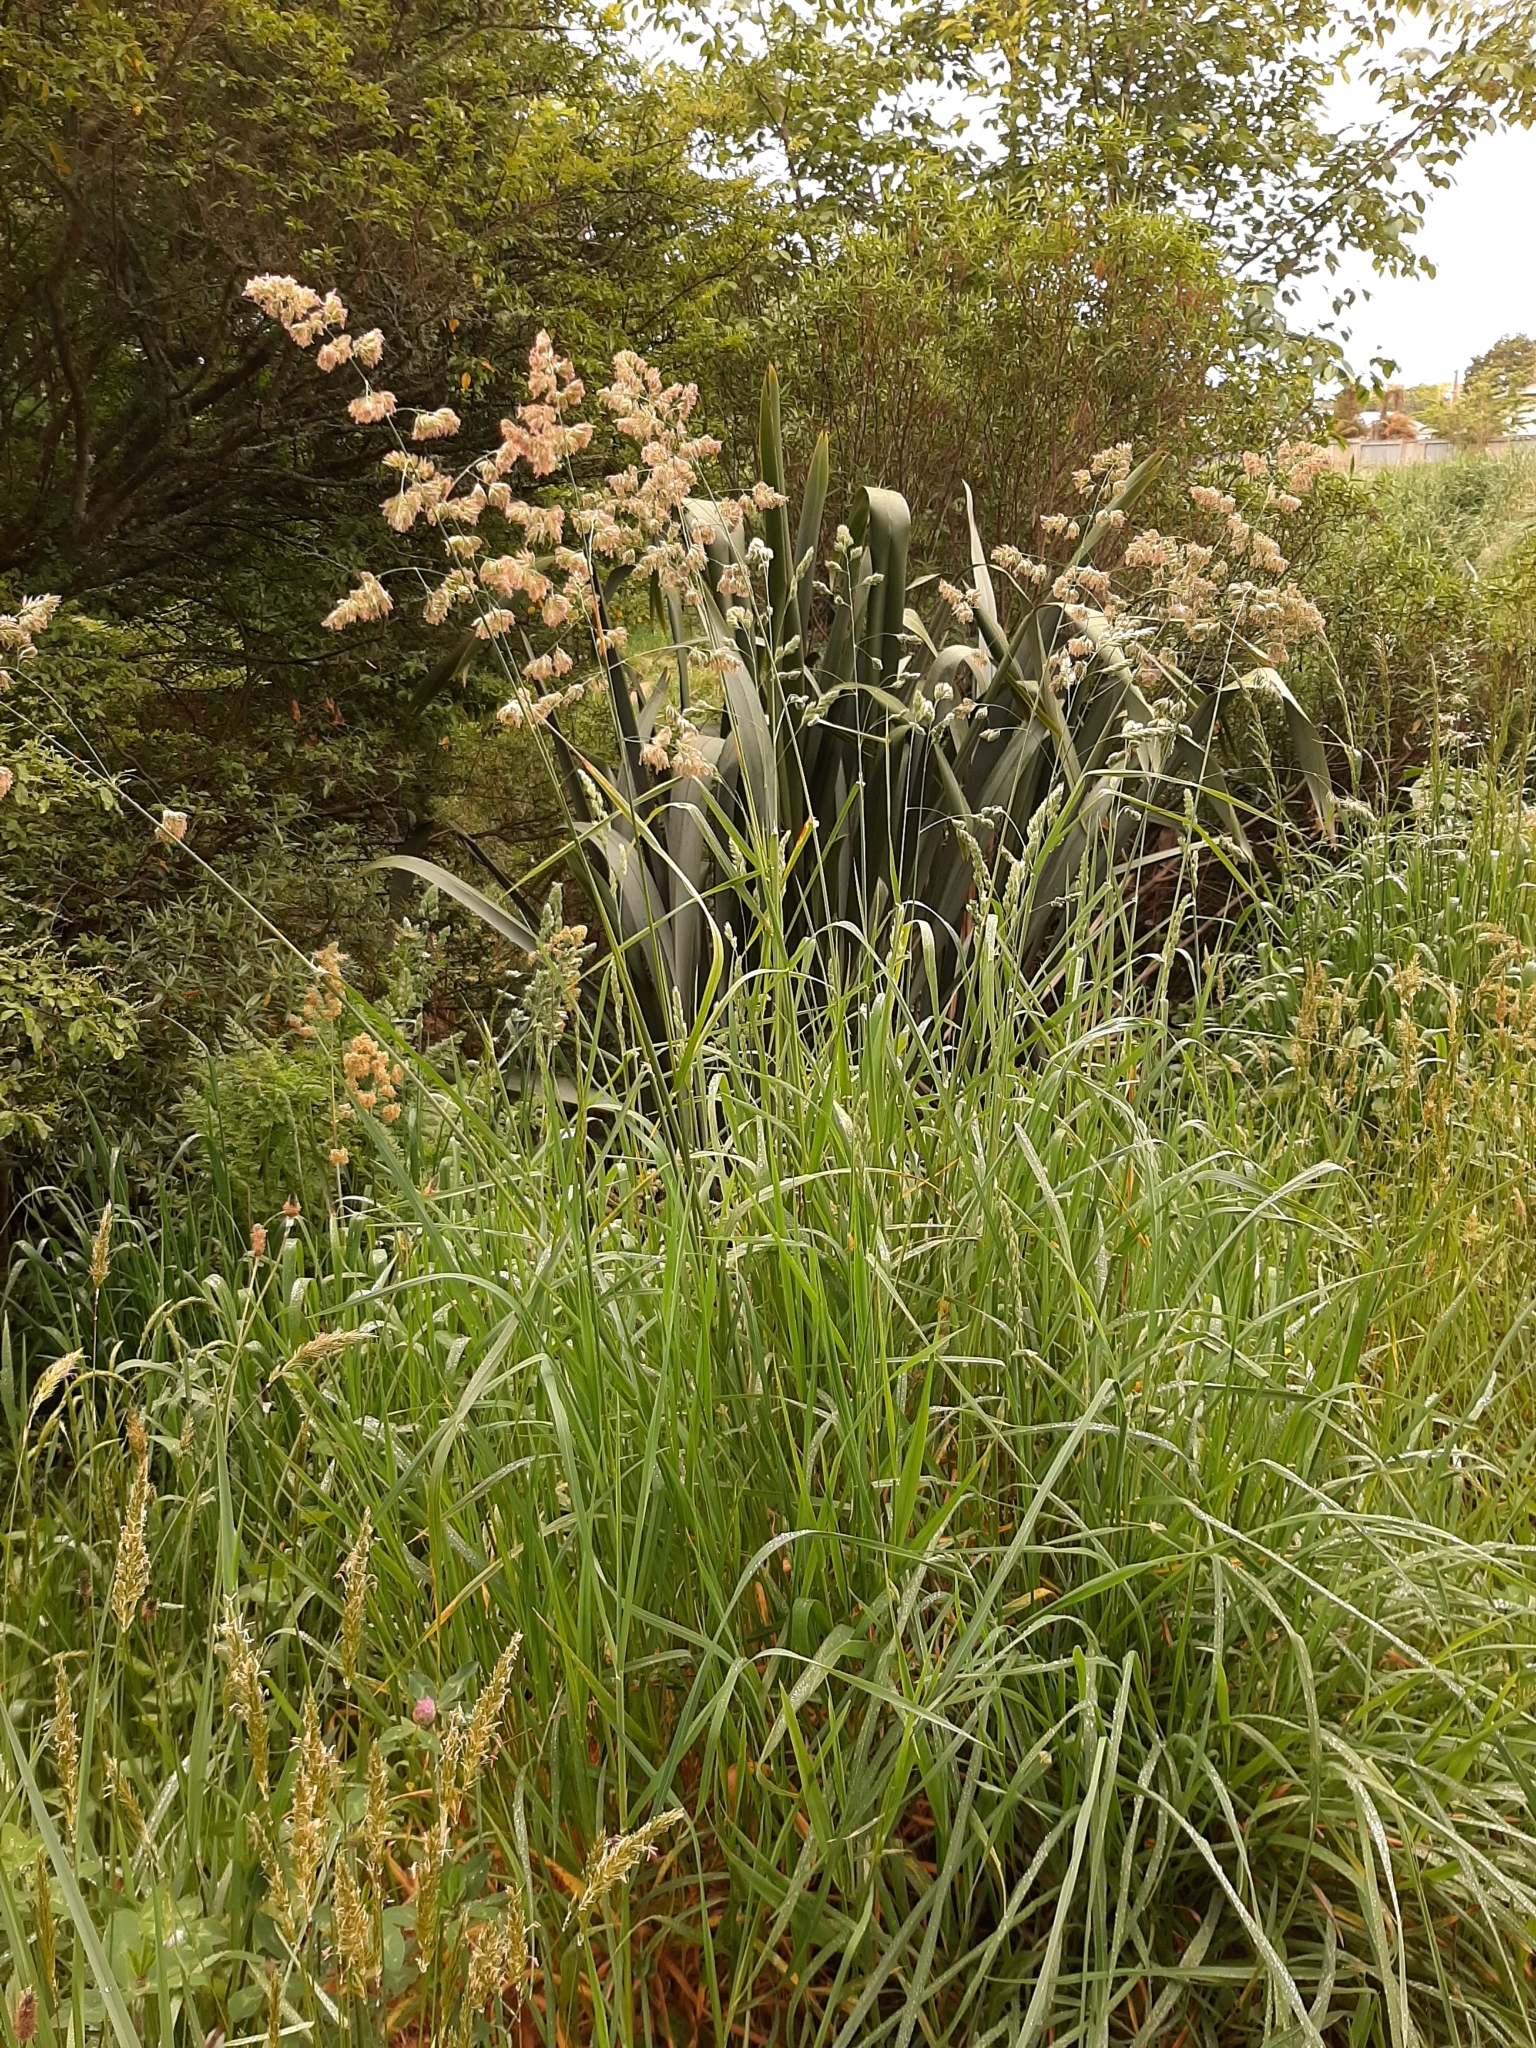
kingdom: Plantae
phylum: Tracheophyta
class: Liliopsida
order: Poales
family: Poaceae
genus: Dactylis
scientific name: Dactylis glomerata
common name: Orchardgrass
